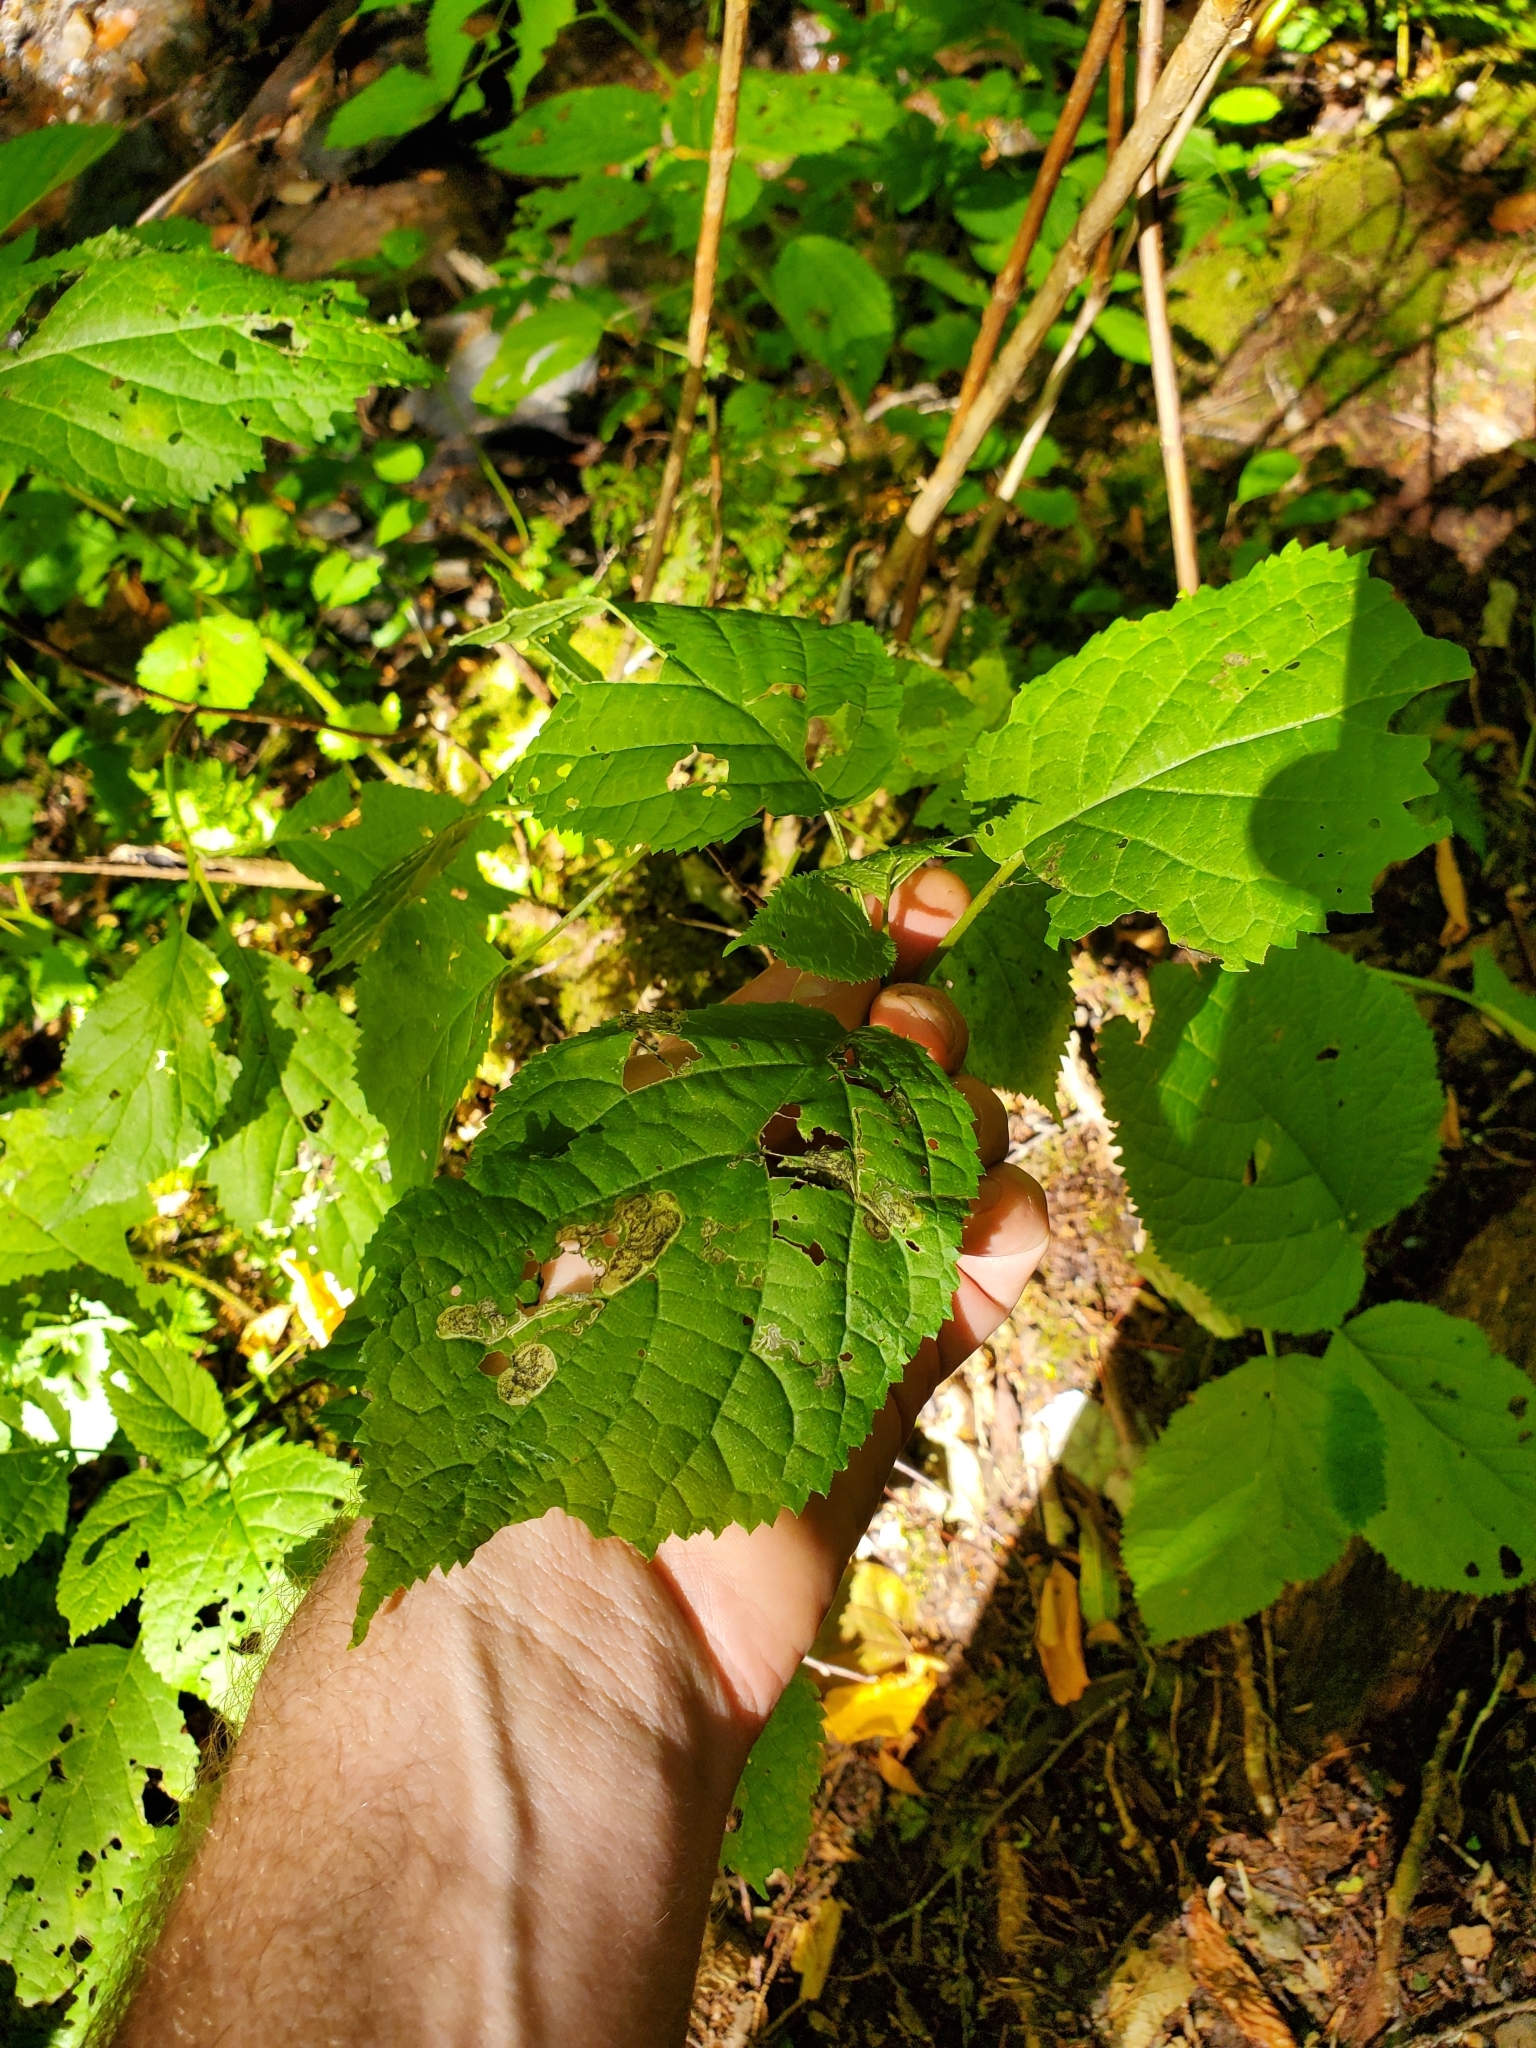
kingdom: Animalia
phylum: Arthropoda
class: Insecta
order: Lepidoptera
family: Heliozelidae
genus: Aspilanta
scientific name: Aspilanta hydrangaeella
